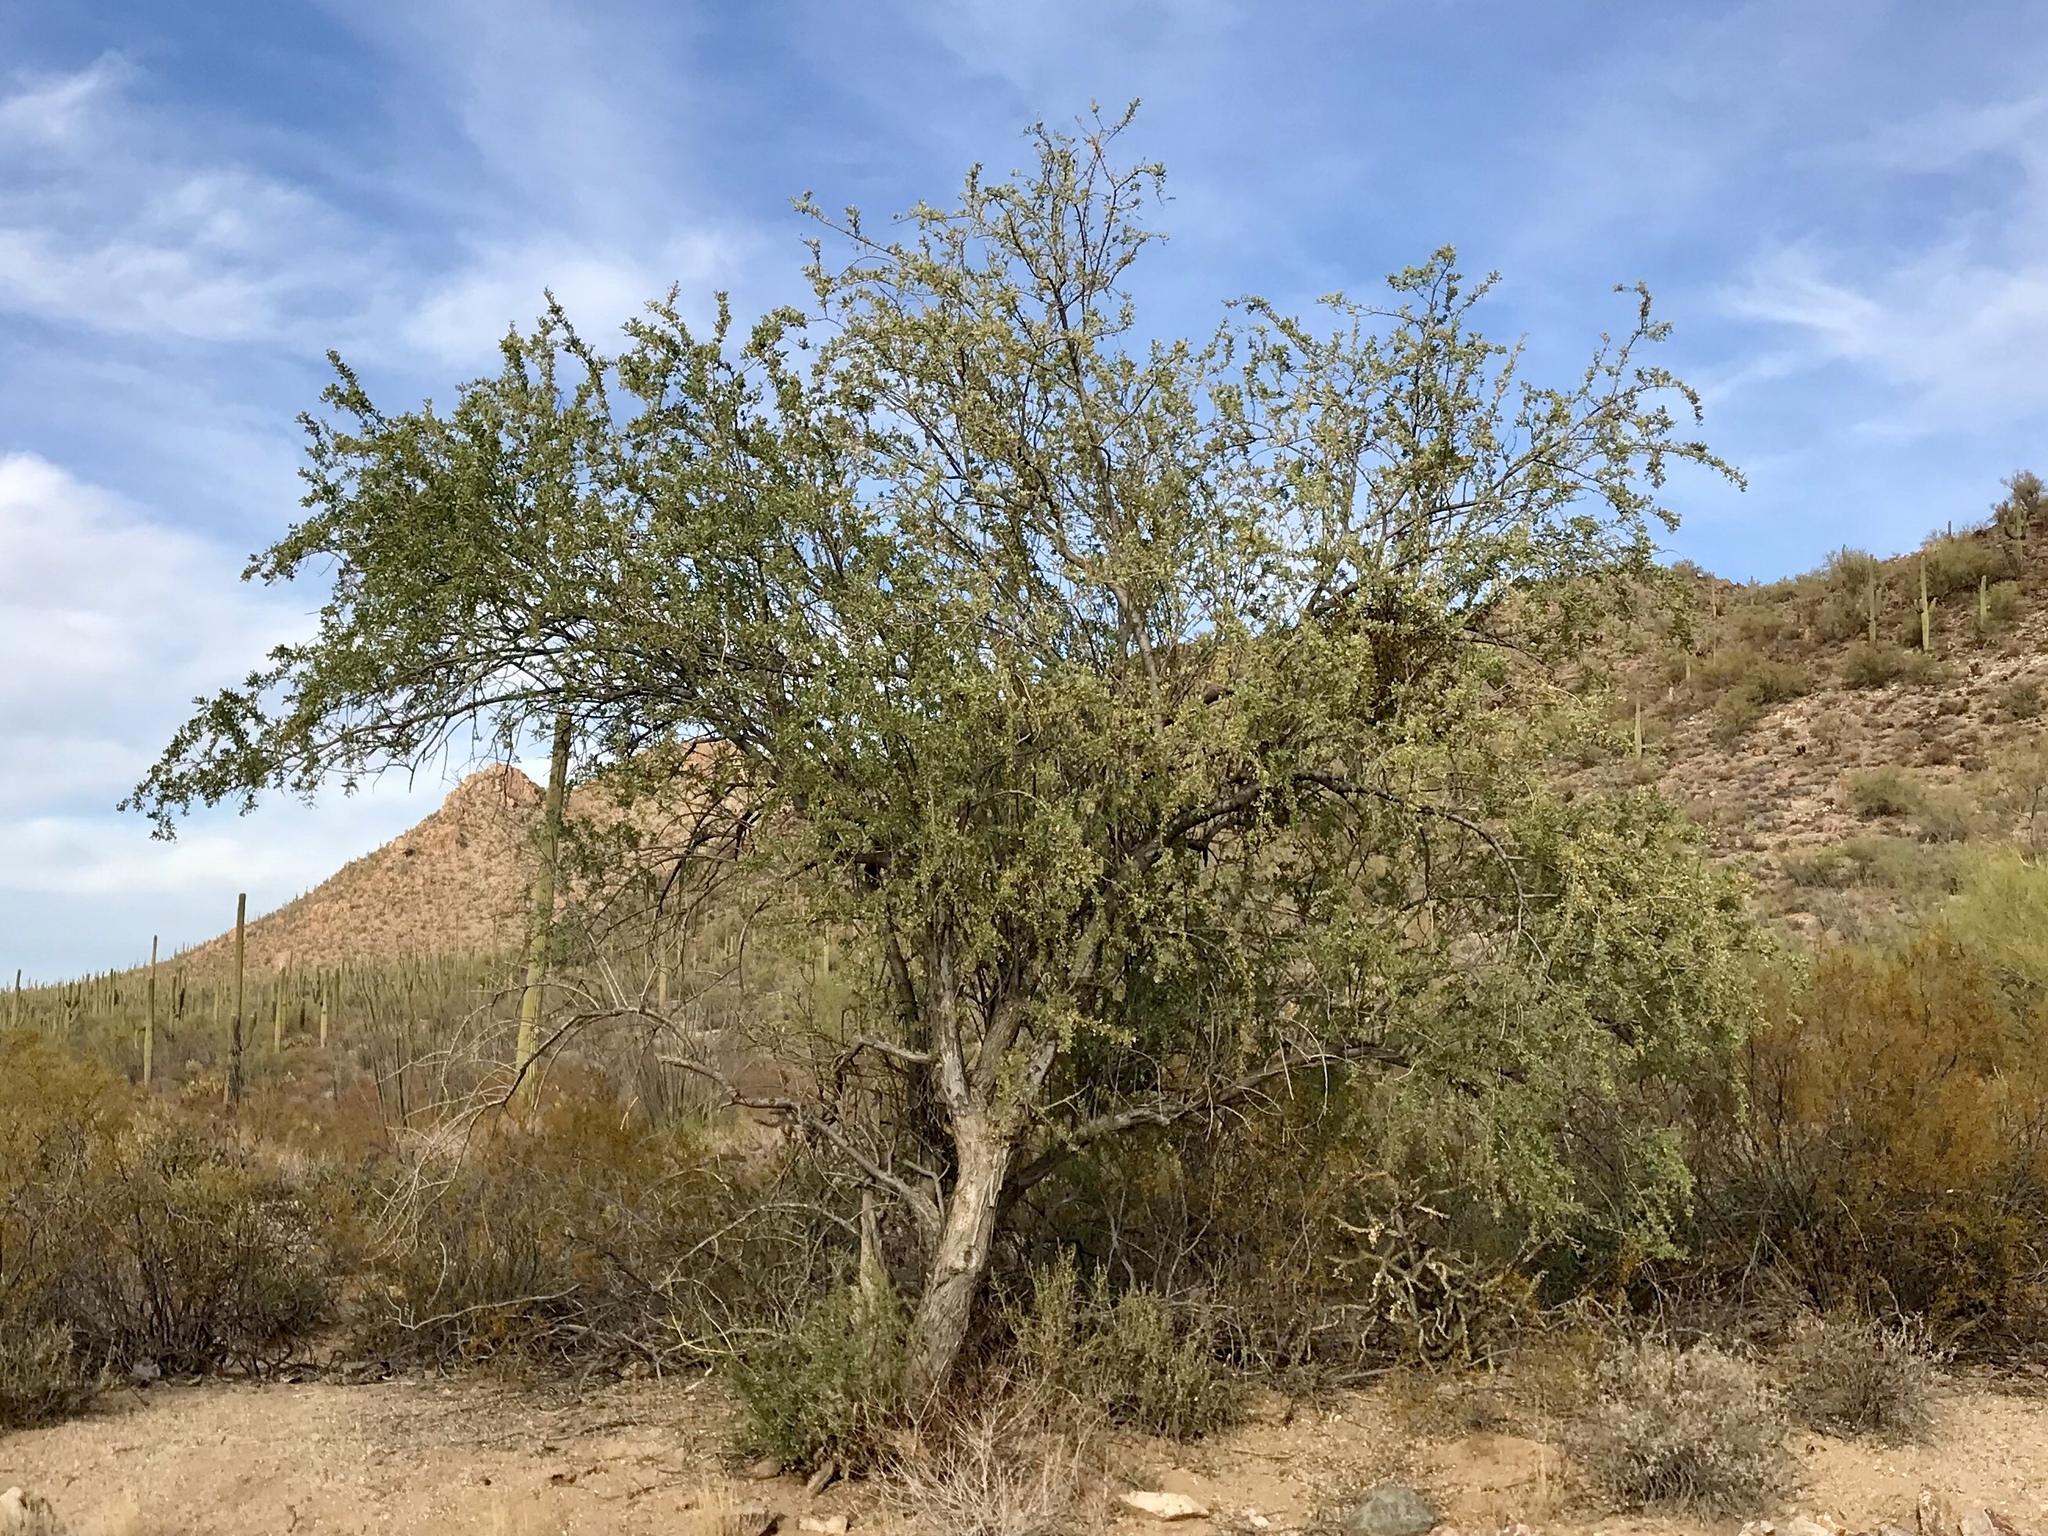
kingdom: Plantae
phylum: Tracheophyta
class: Magnoliopsida
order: Fabales
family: Fabaceae
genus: Olneya
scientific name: Olneya tesota
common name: Desert ironwood
